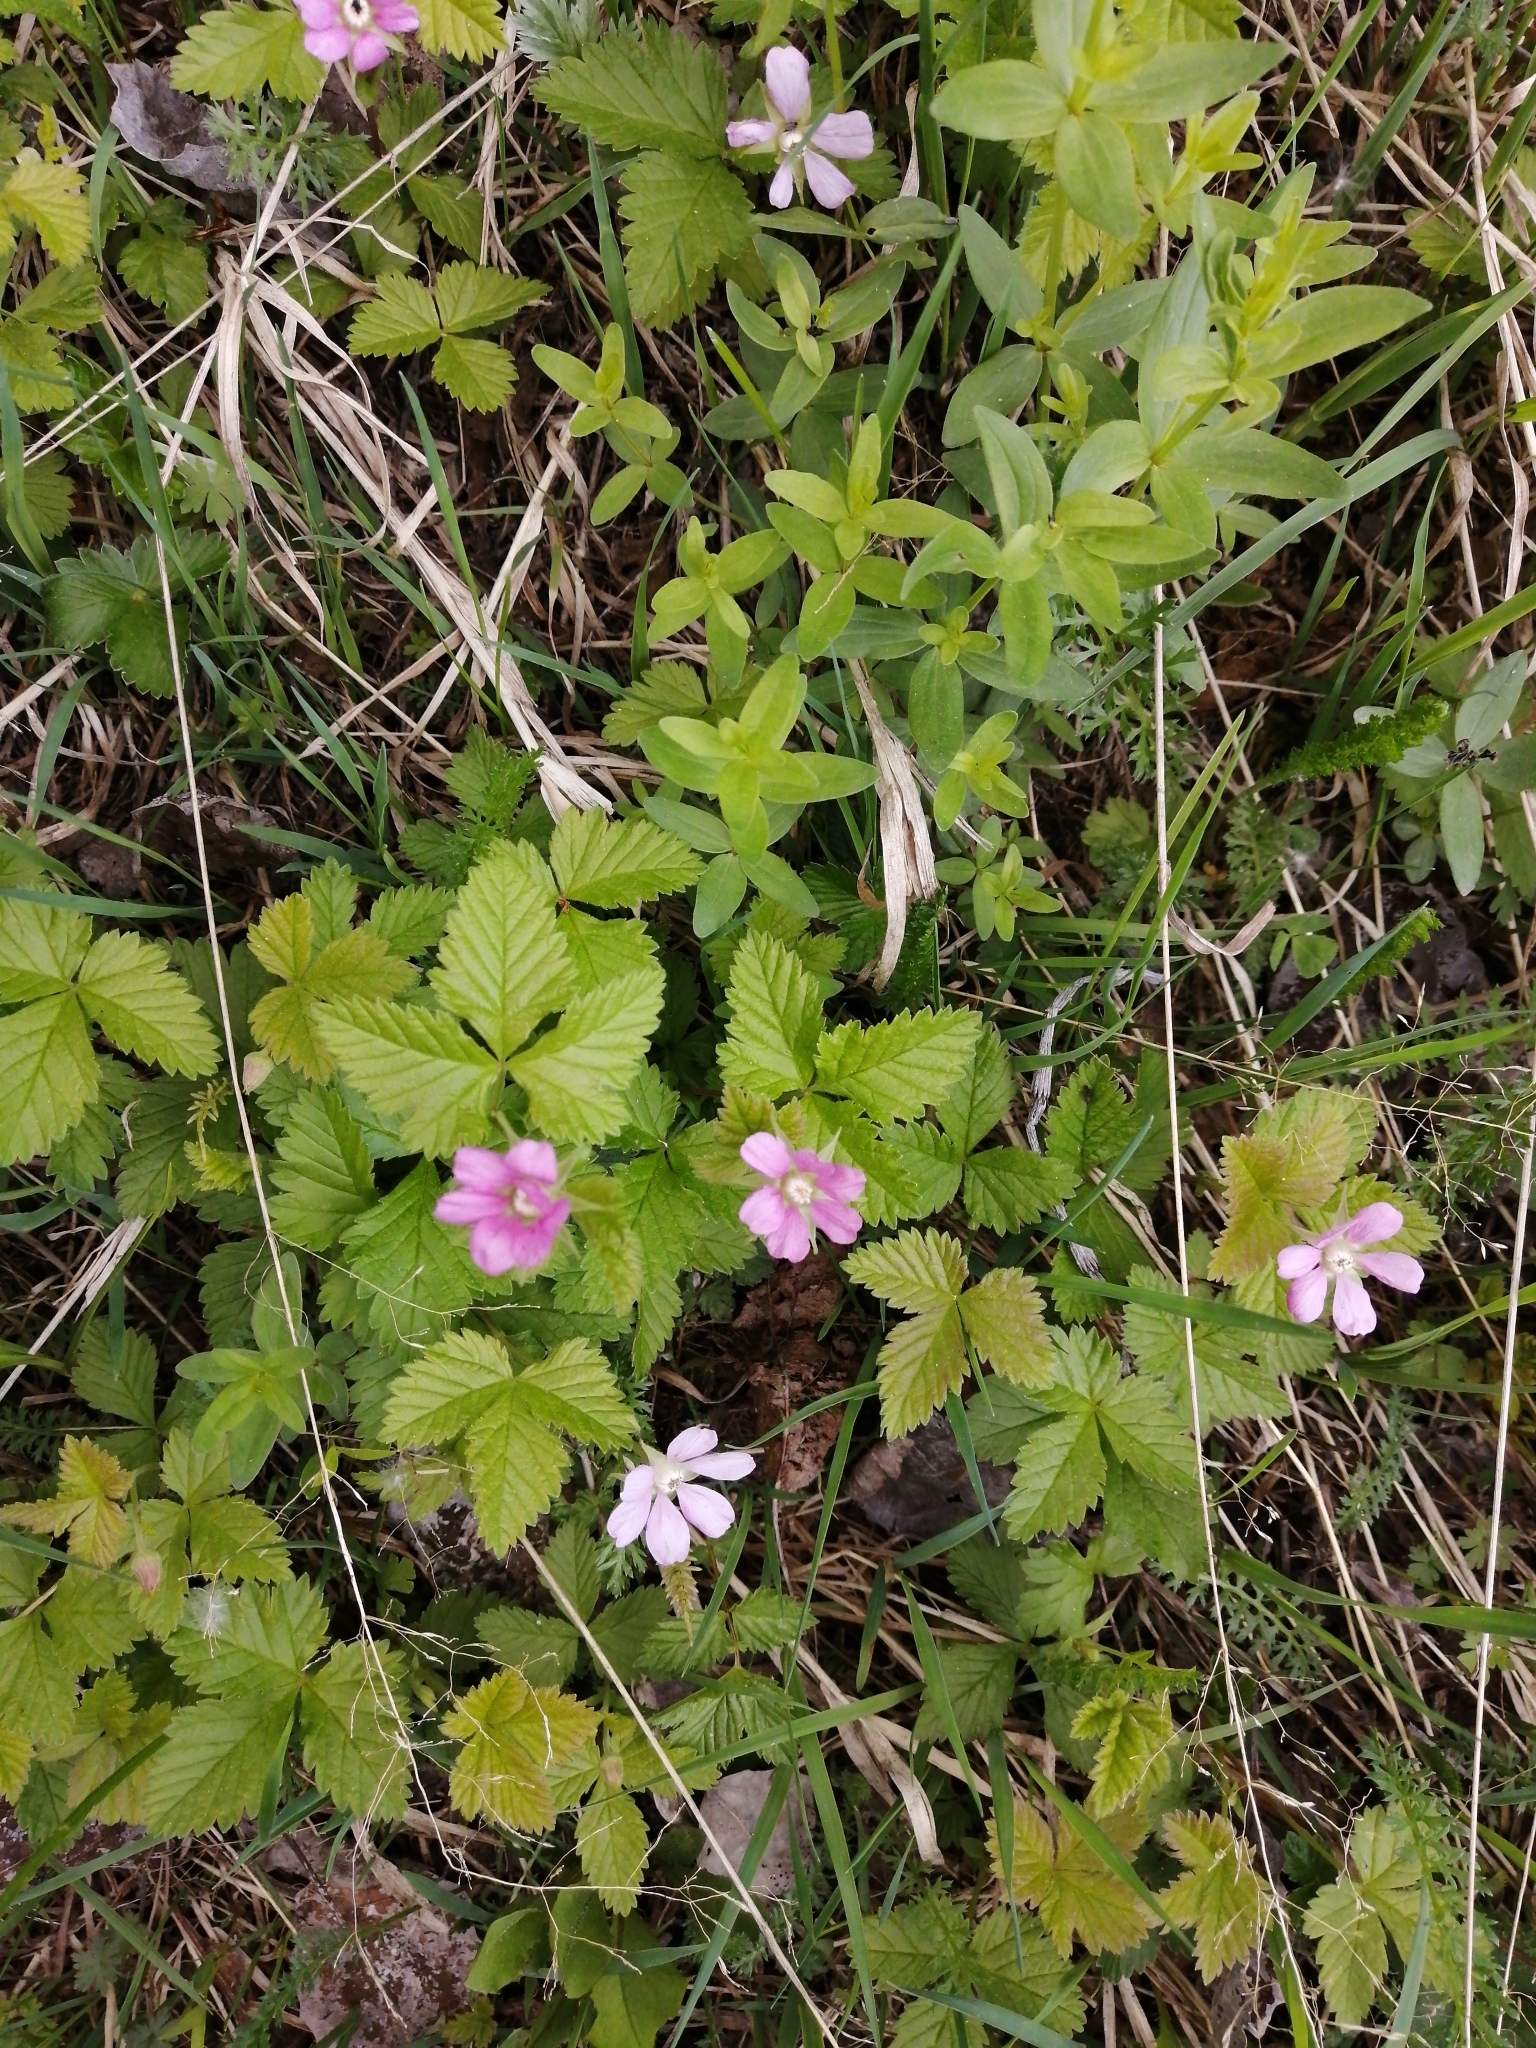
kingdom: Plantae
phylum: Tracheophyta
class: Magnoliopsida
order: Rosales
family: Rosaceae
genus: Rubus
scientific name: Rubus arcticus
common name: Arctic bramble
